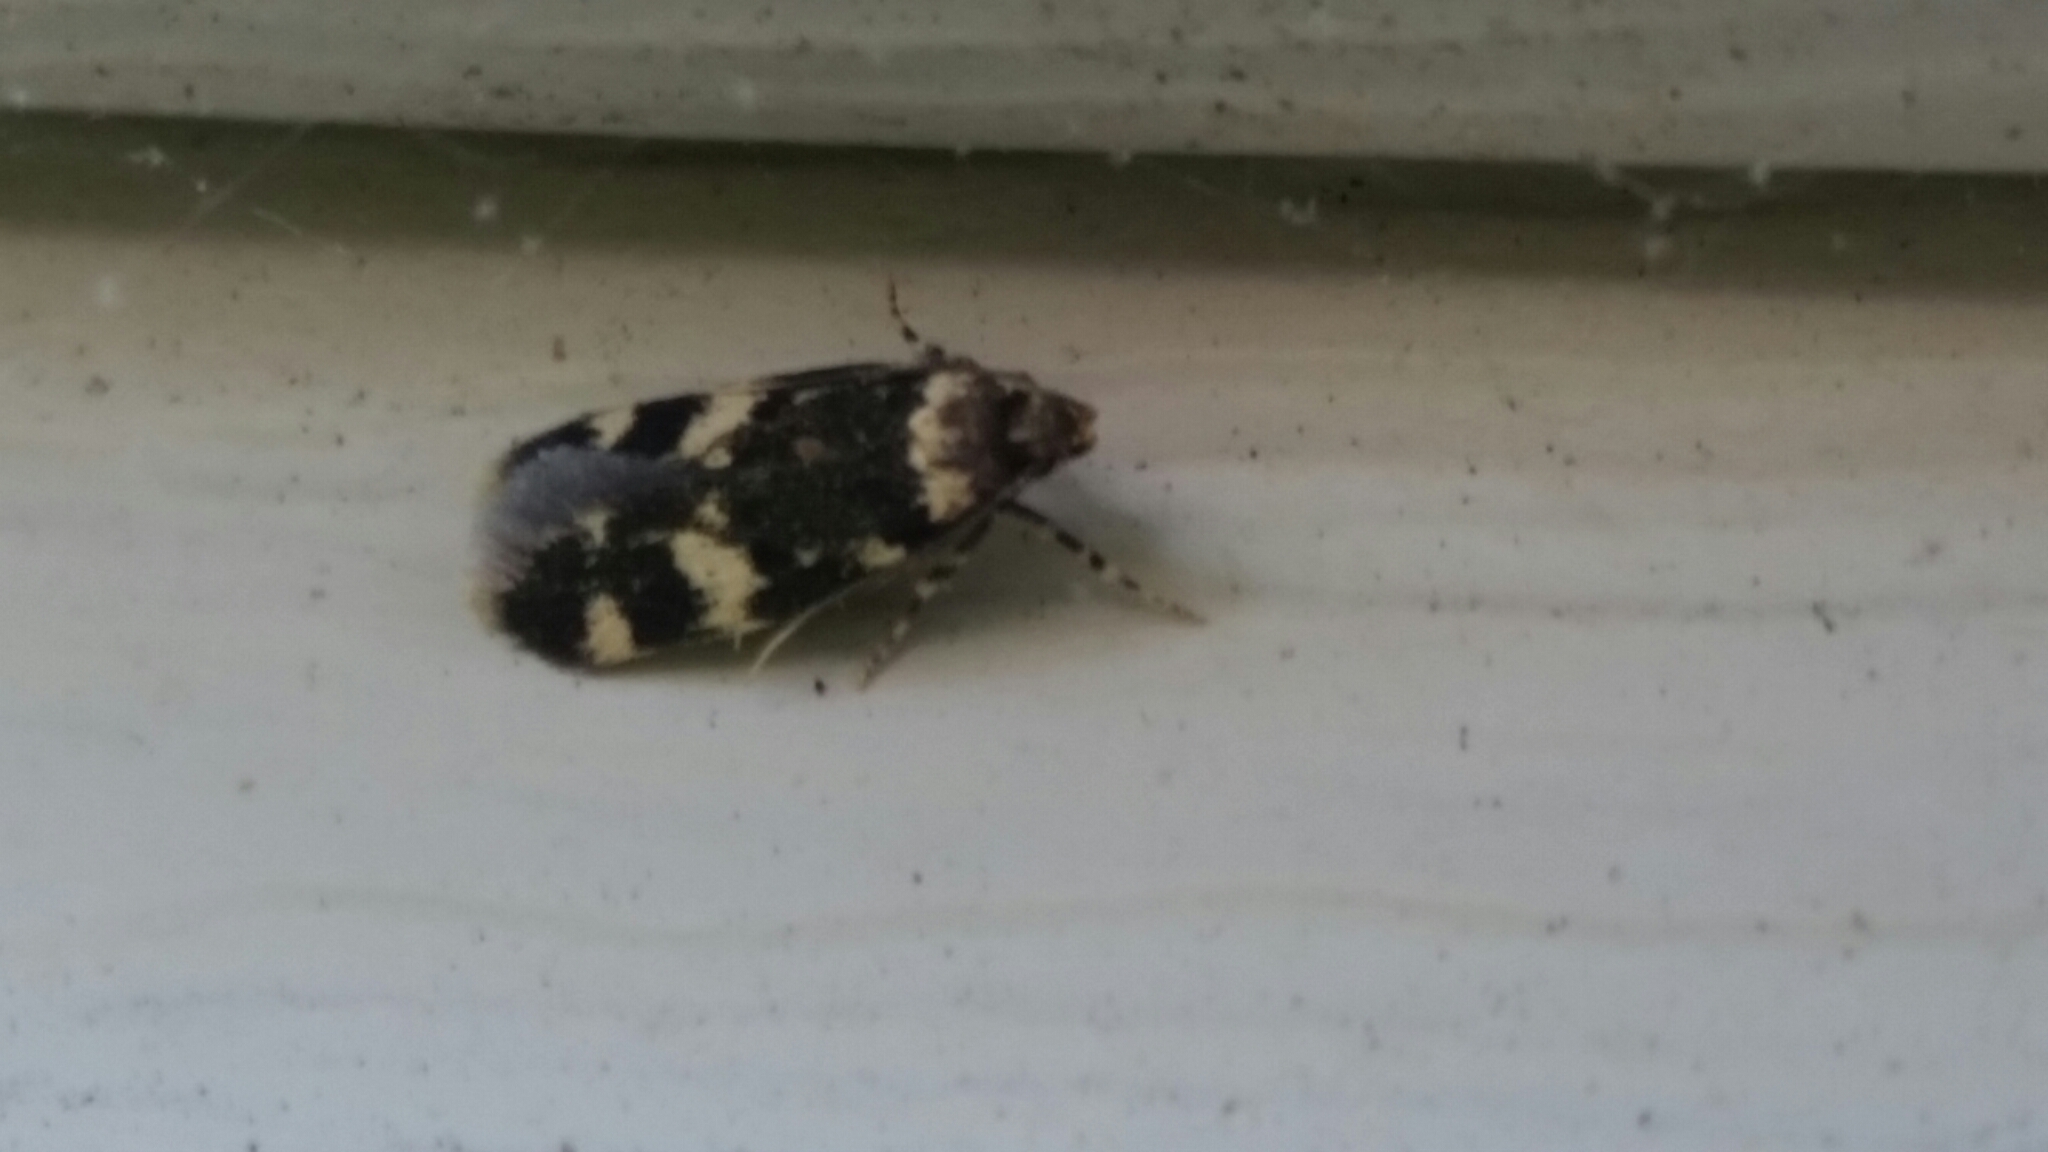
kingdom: Animalia
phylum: Arthropoda
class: Insecta
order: Lepidoptera
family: Autostichidae
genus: Oegoconia
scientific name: Oegoconia quadripuncta
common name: Four-spotted obscure
